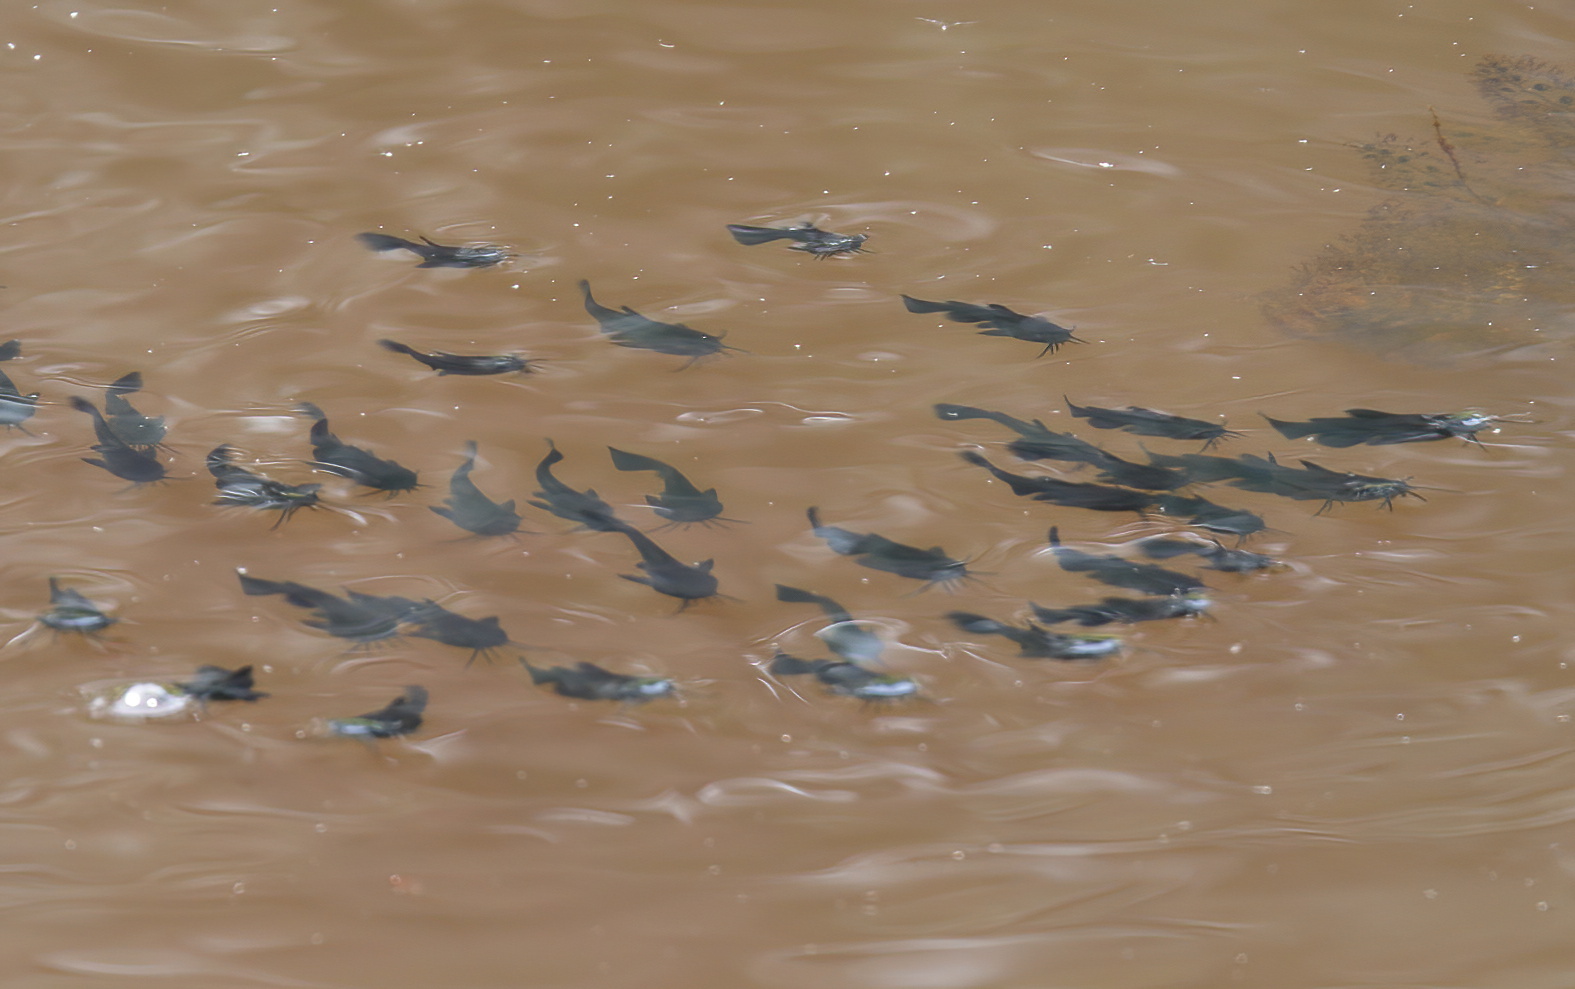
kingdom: Animalia
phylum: Chordata
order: Siluriformes
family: Ictaluridae
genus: Ameiurus
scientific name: Ameiurus melas
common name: Black bullhead
